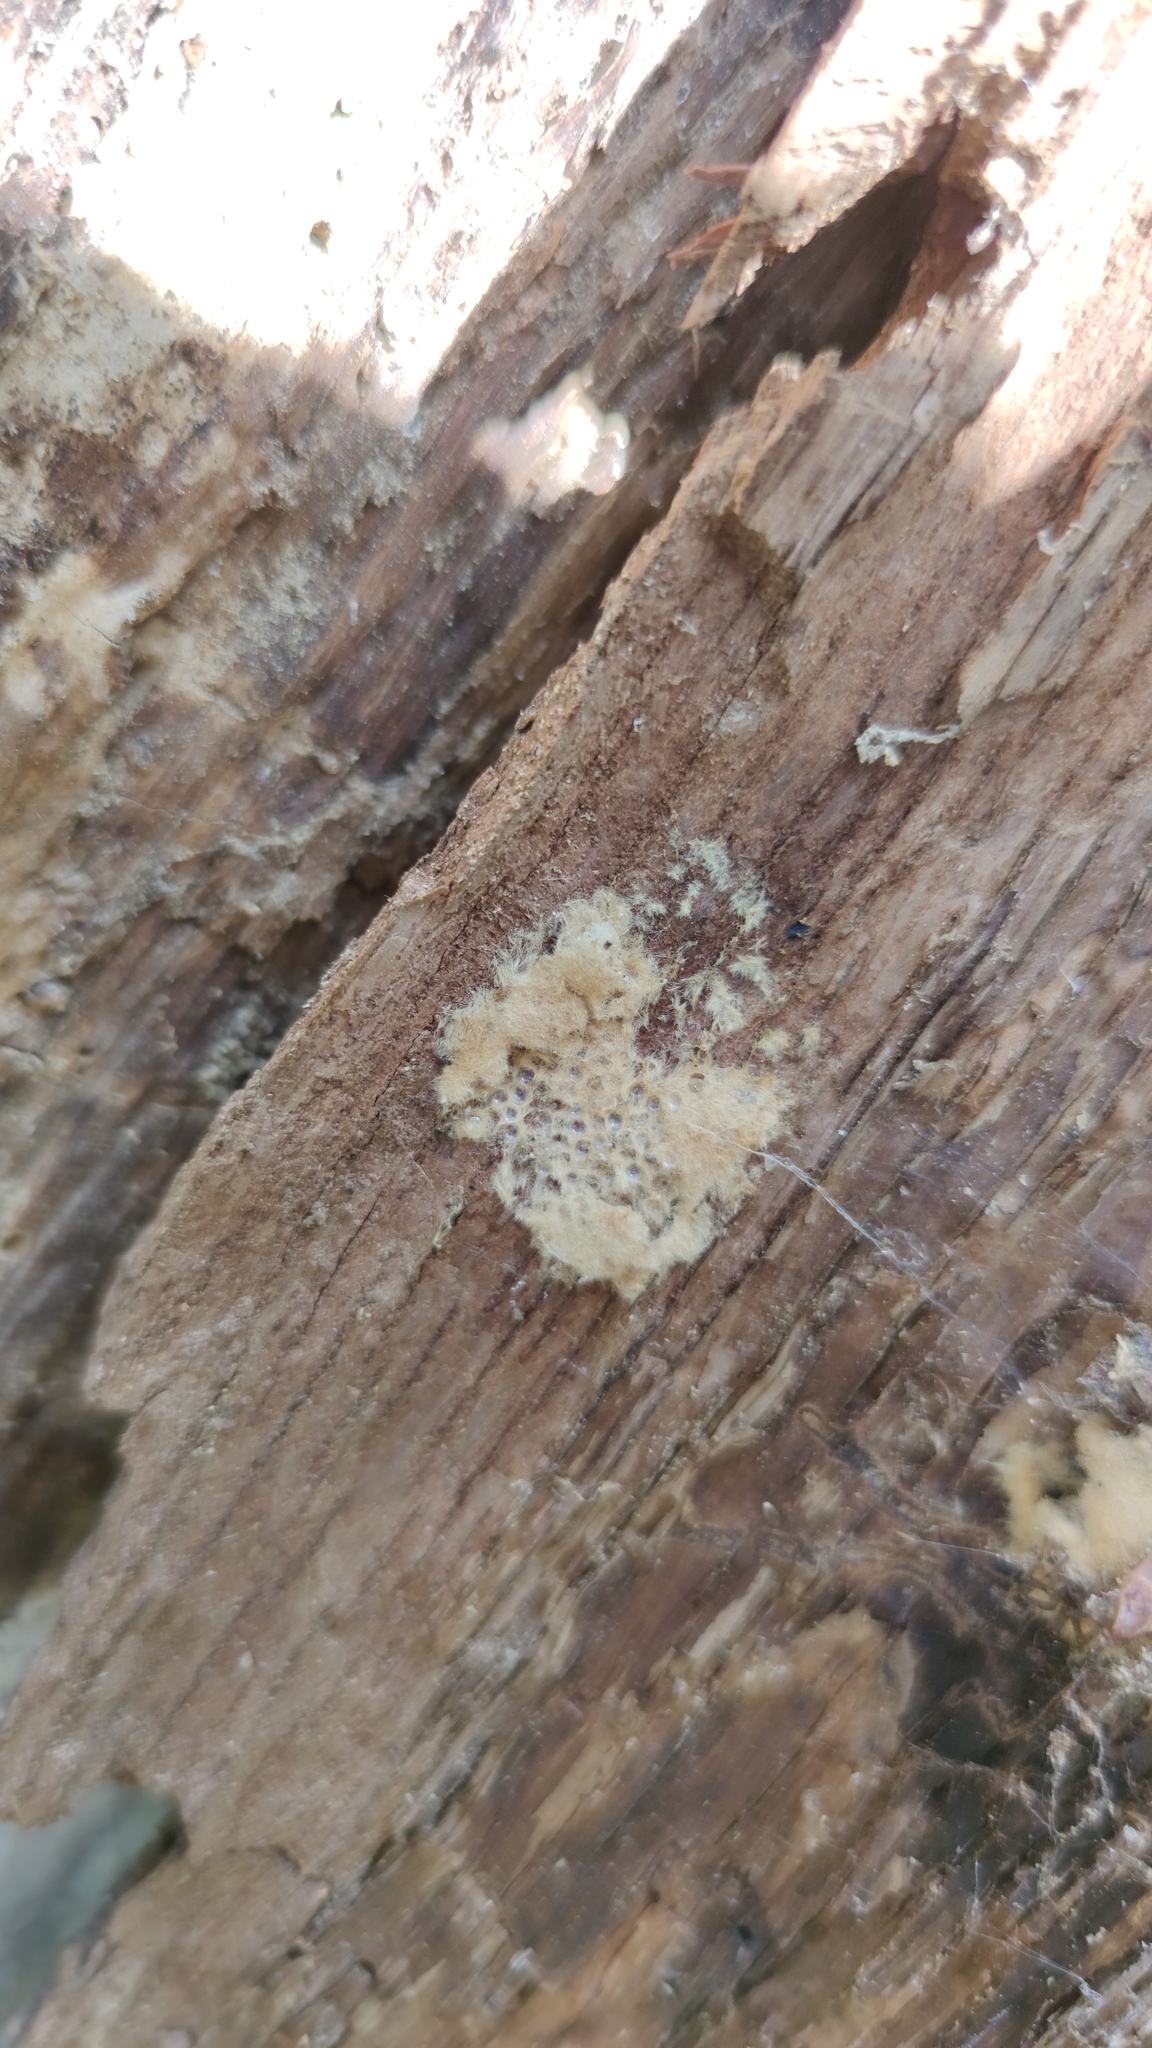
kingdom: Animalia
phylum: Arthropoda
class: Insecta
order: Lepidoptera
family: Erebidae
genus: Lymantria
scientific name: Lymantria dispar
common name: Gypsy moth
